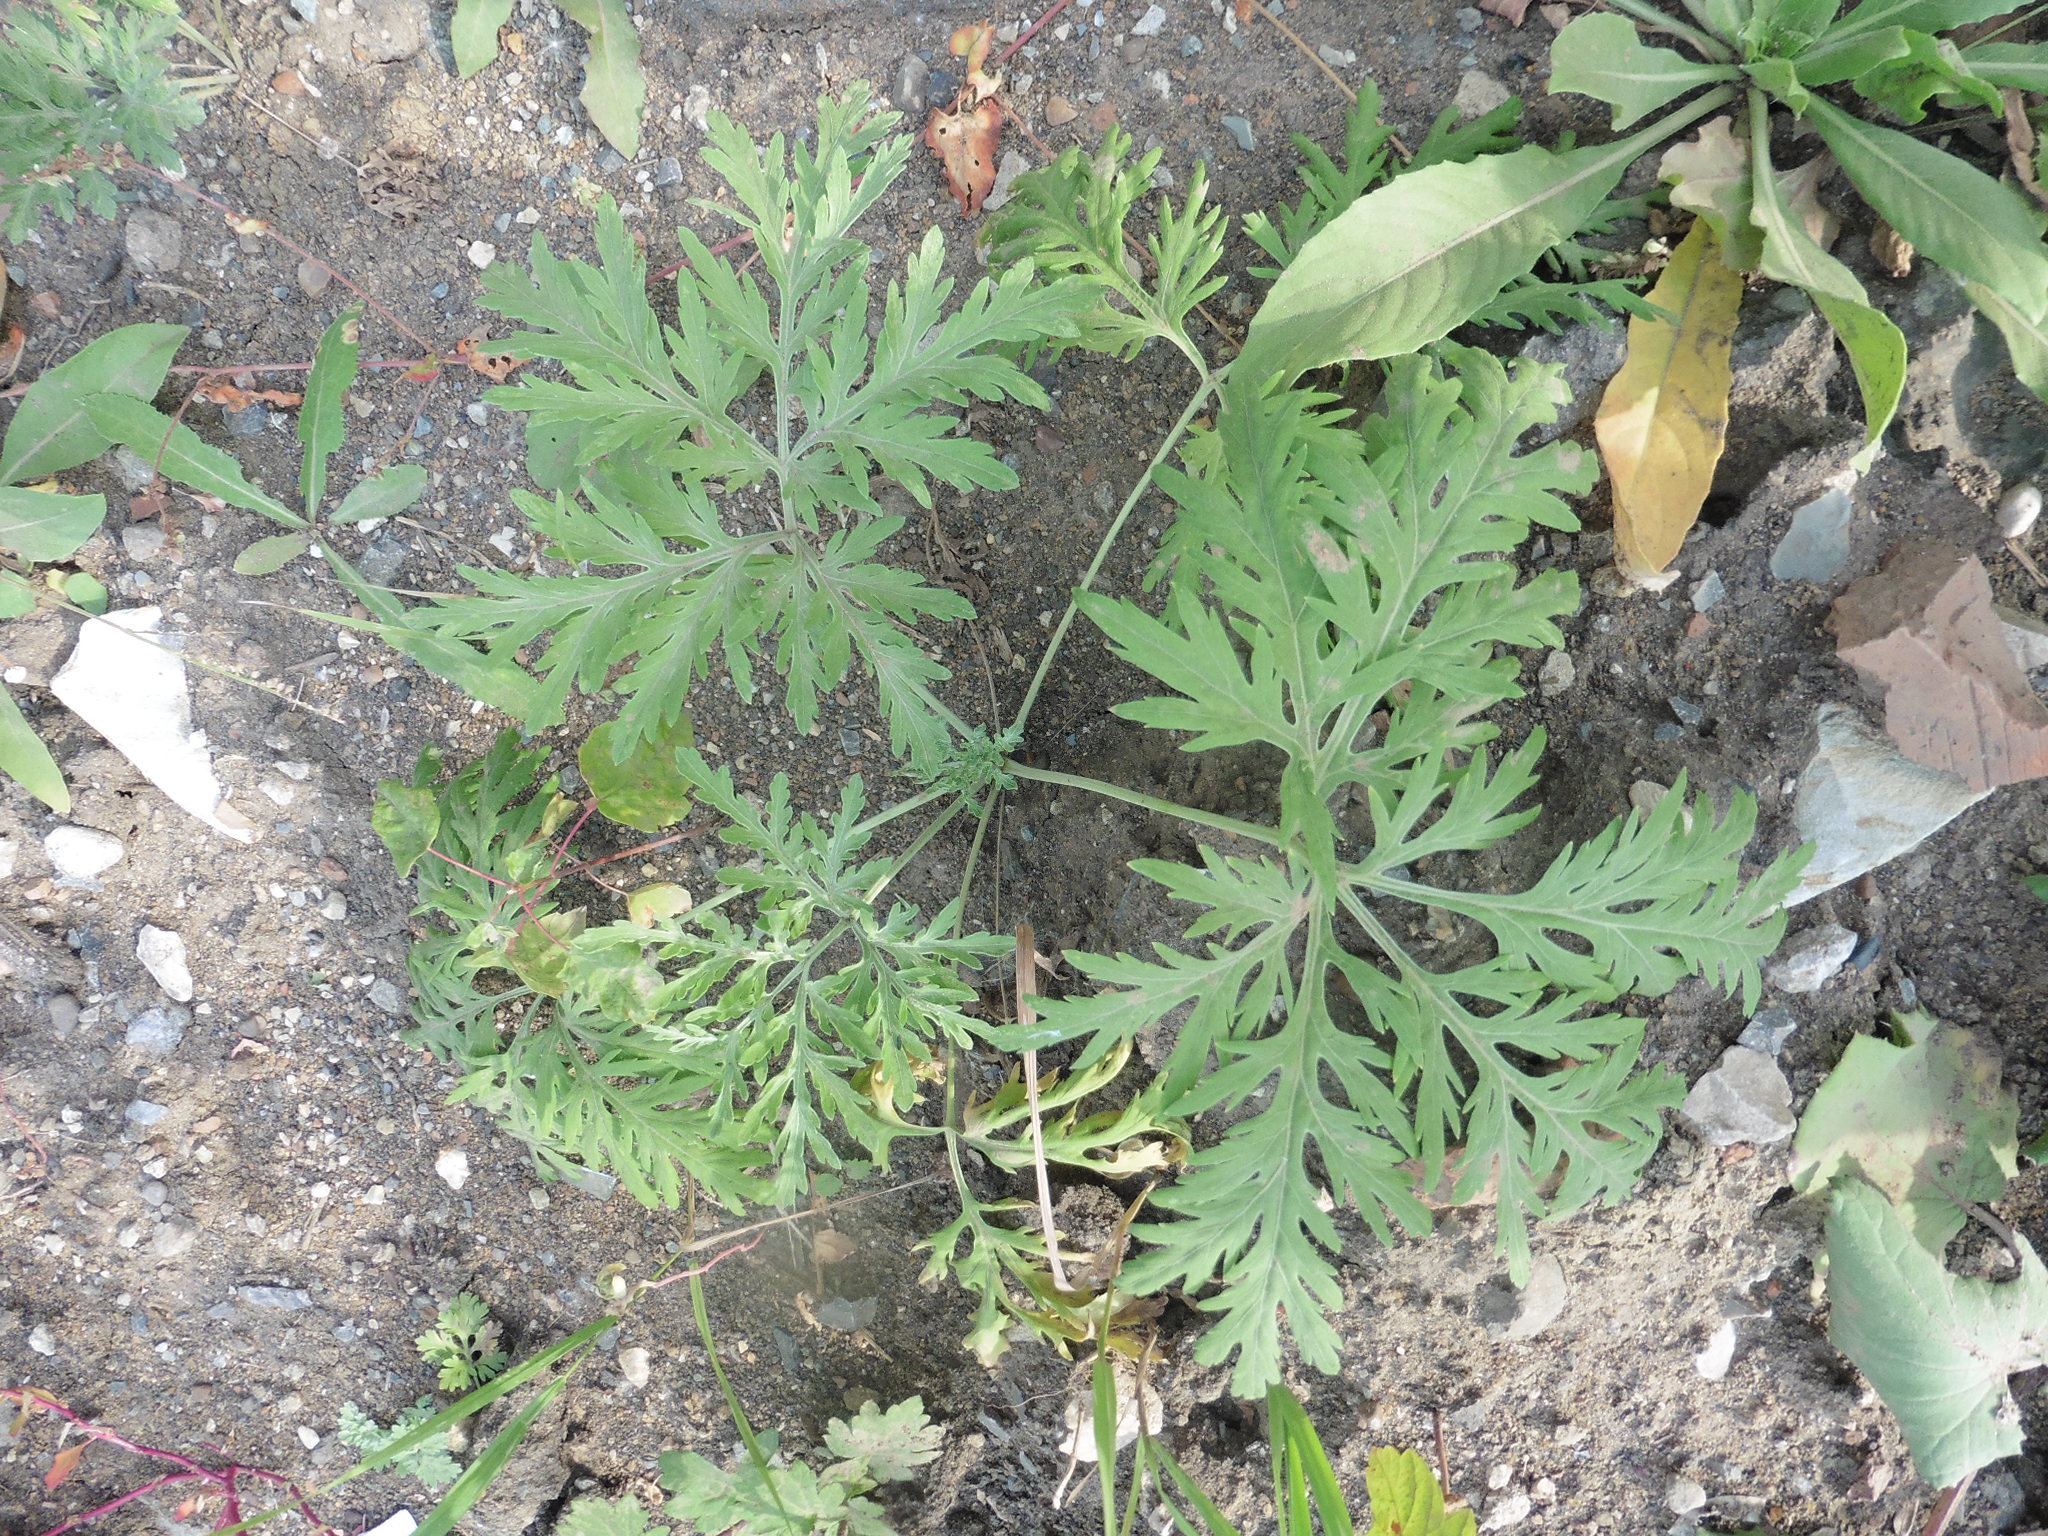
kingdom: Plantae
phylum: Tracheophyta
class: Magnoliopsida
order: Asterales
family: Asteraceae
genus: Artemisia
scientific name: Artemisia sieversiana
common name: Sieversian wormwood
